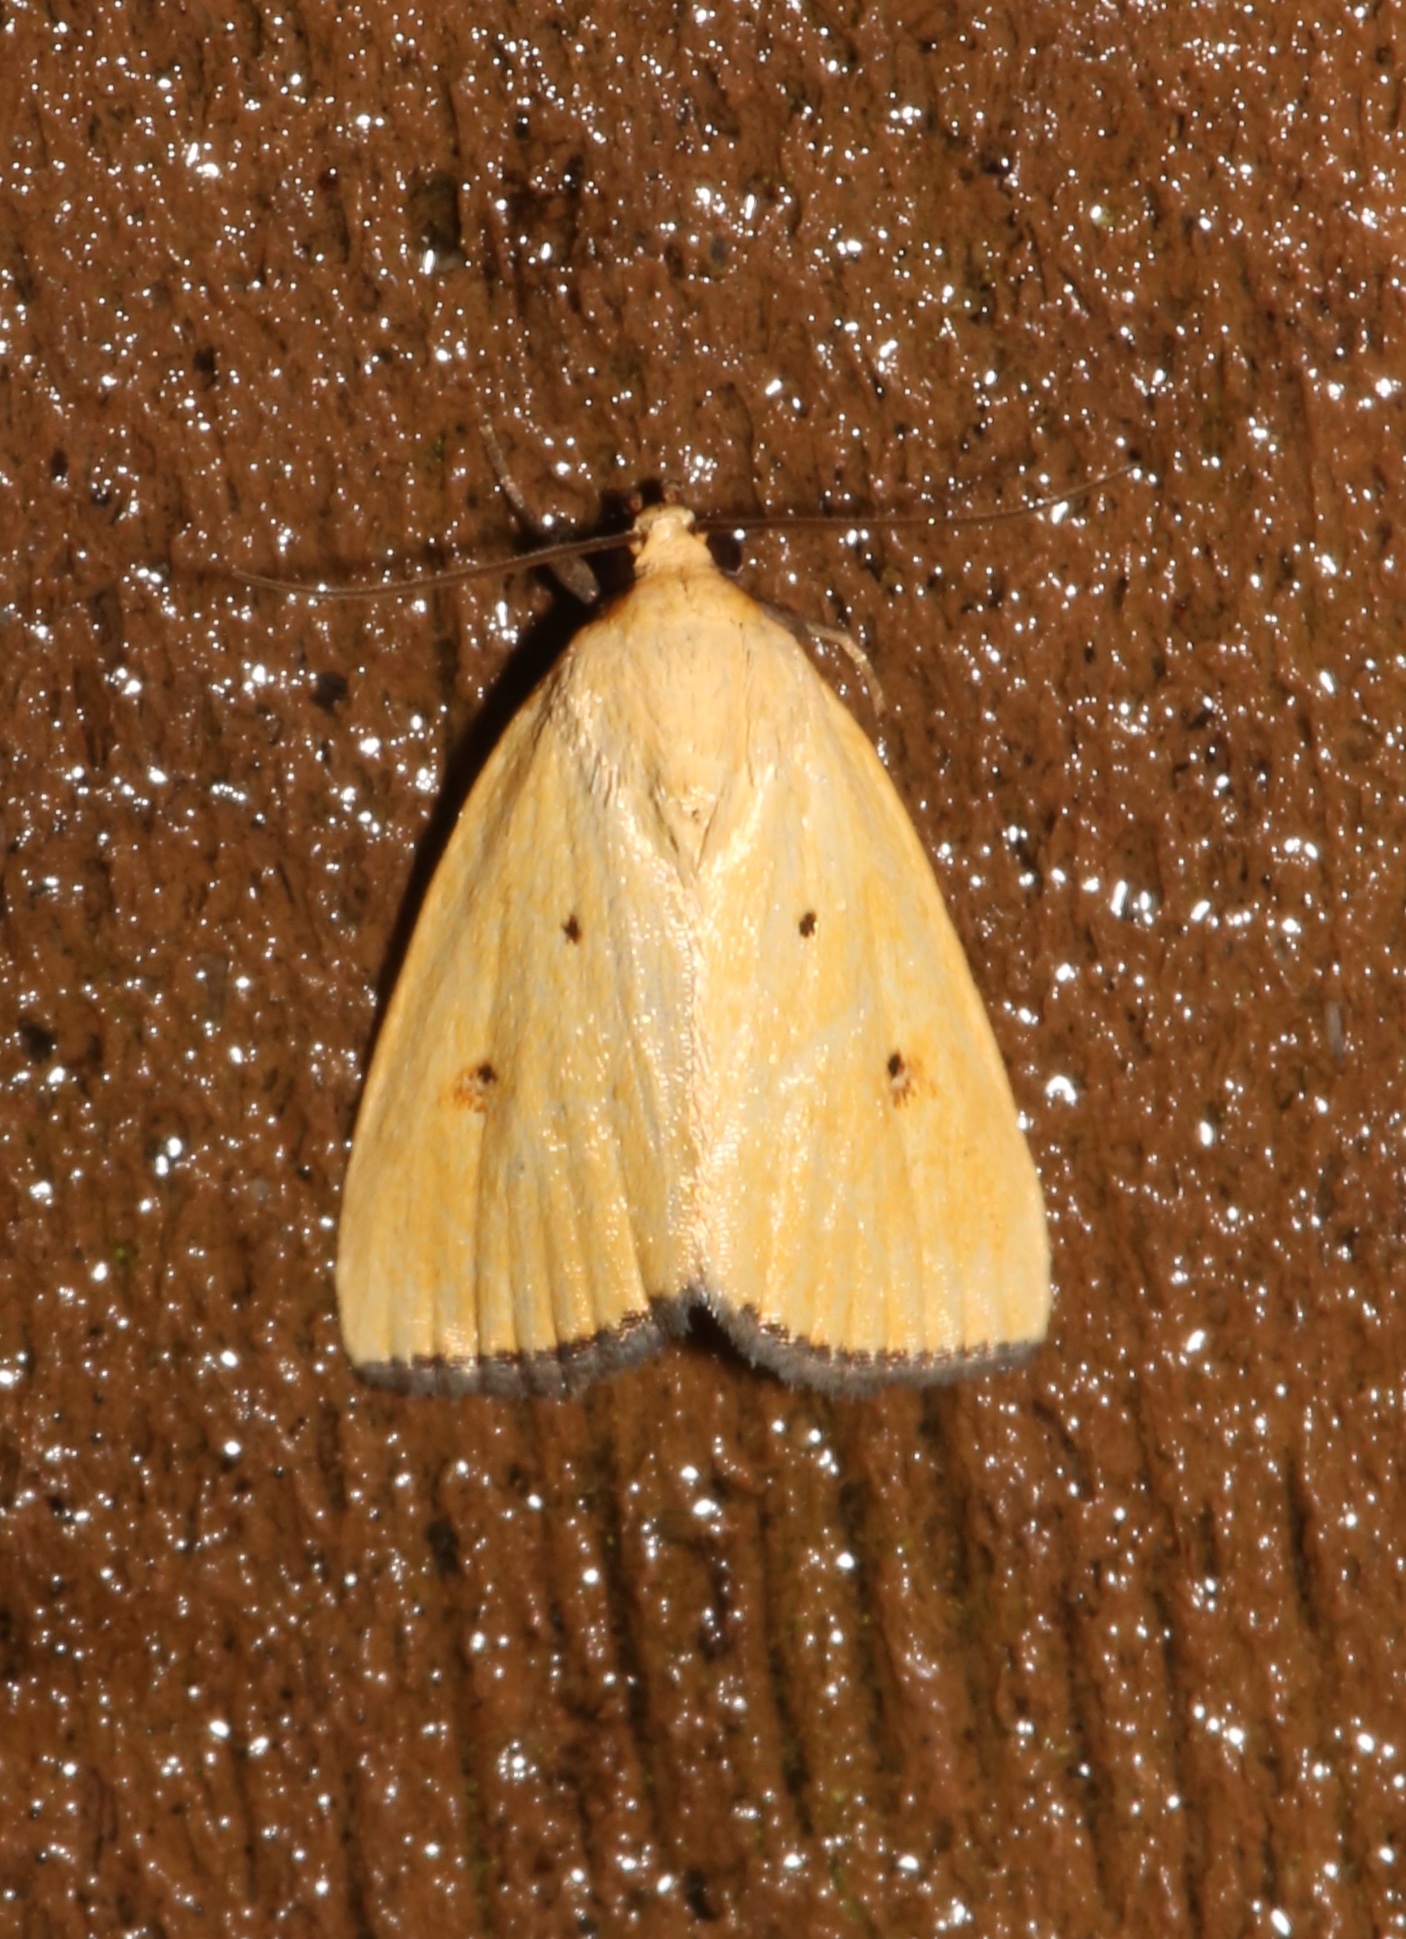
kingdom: Animalia
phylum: Arthropoda
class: Insecta
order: Lepidoptera
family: Noctuidae
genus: Marimatha
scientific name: Marimatha nigrofimbria
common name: Black-bordered lemon moth
